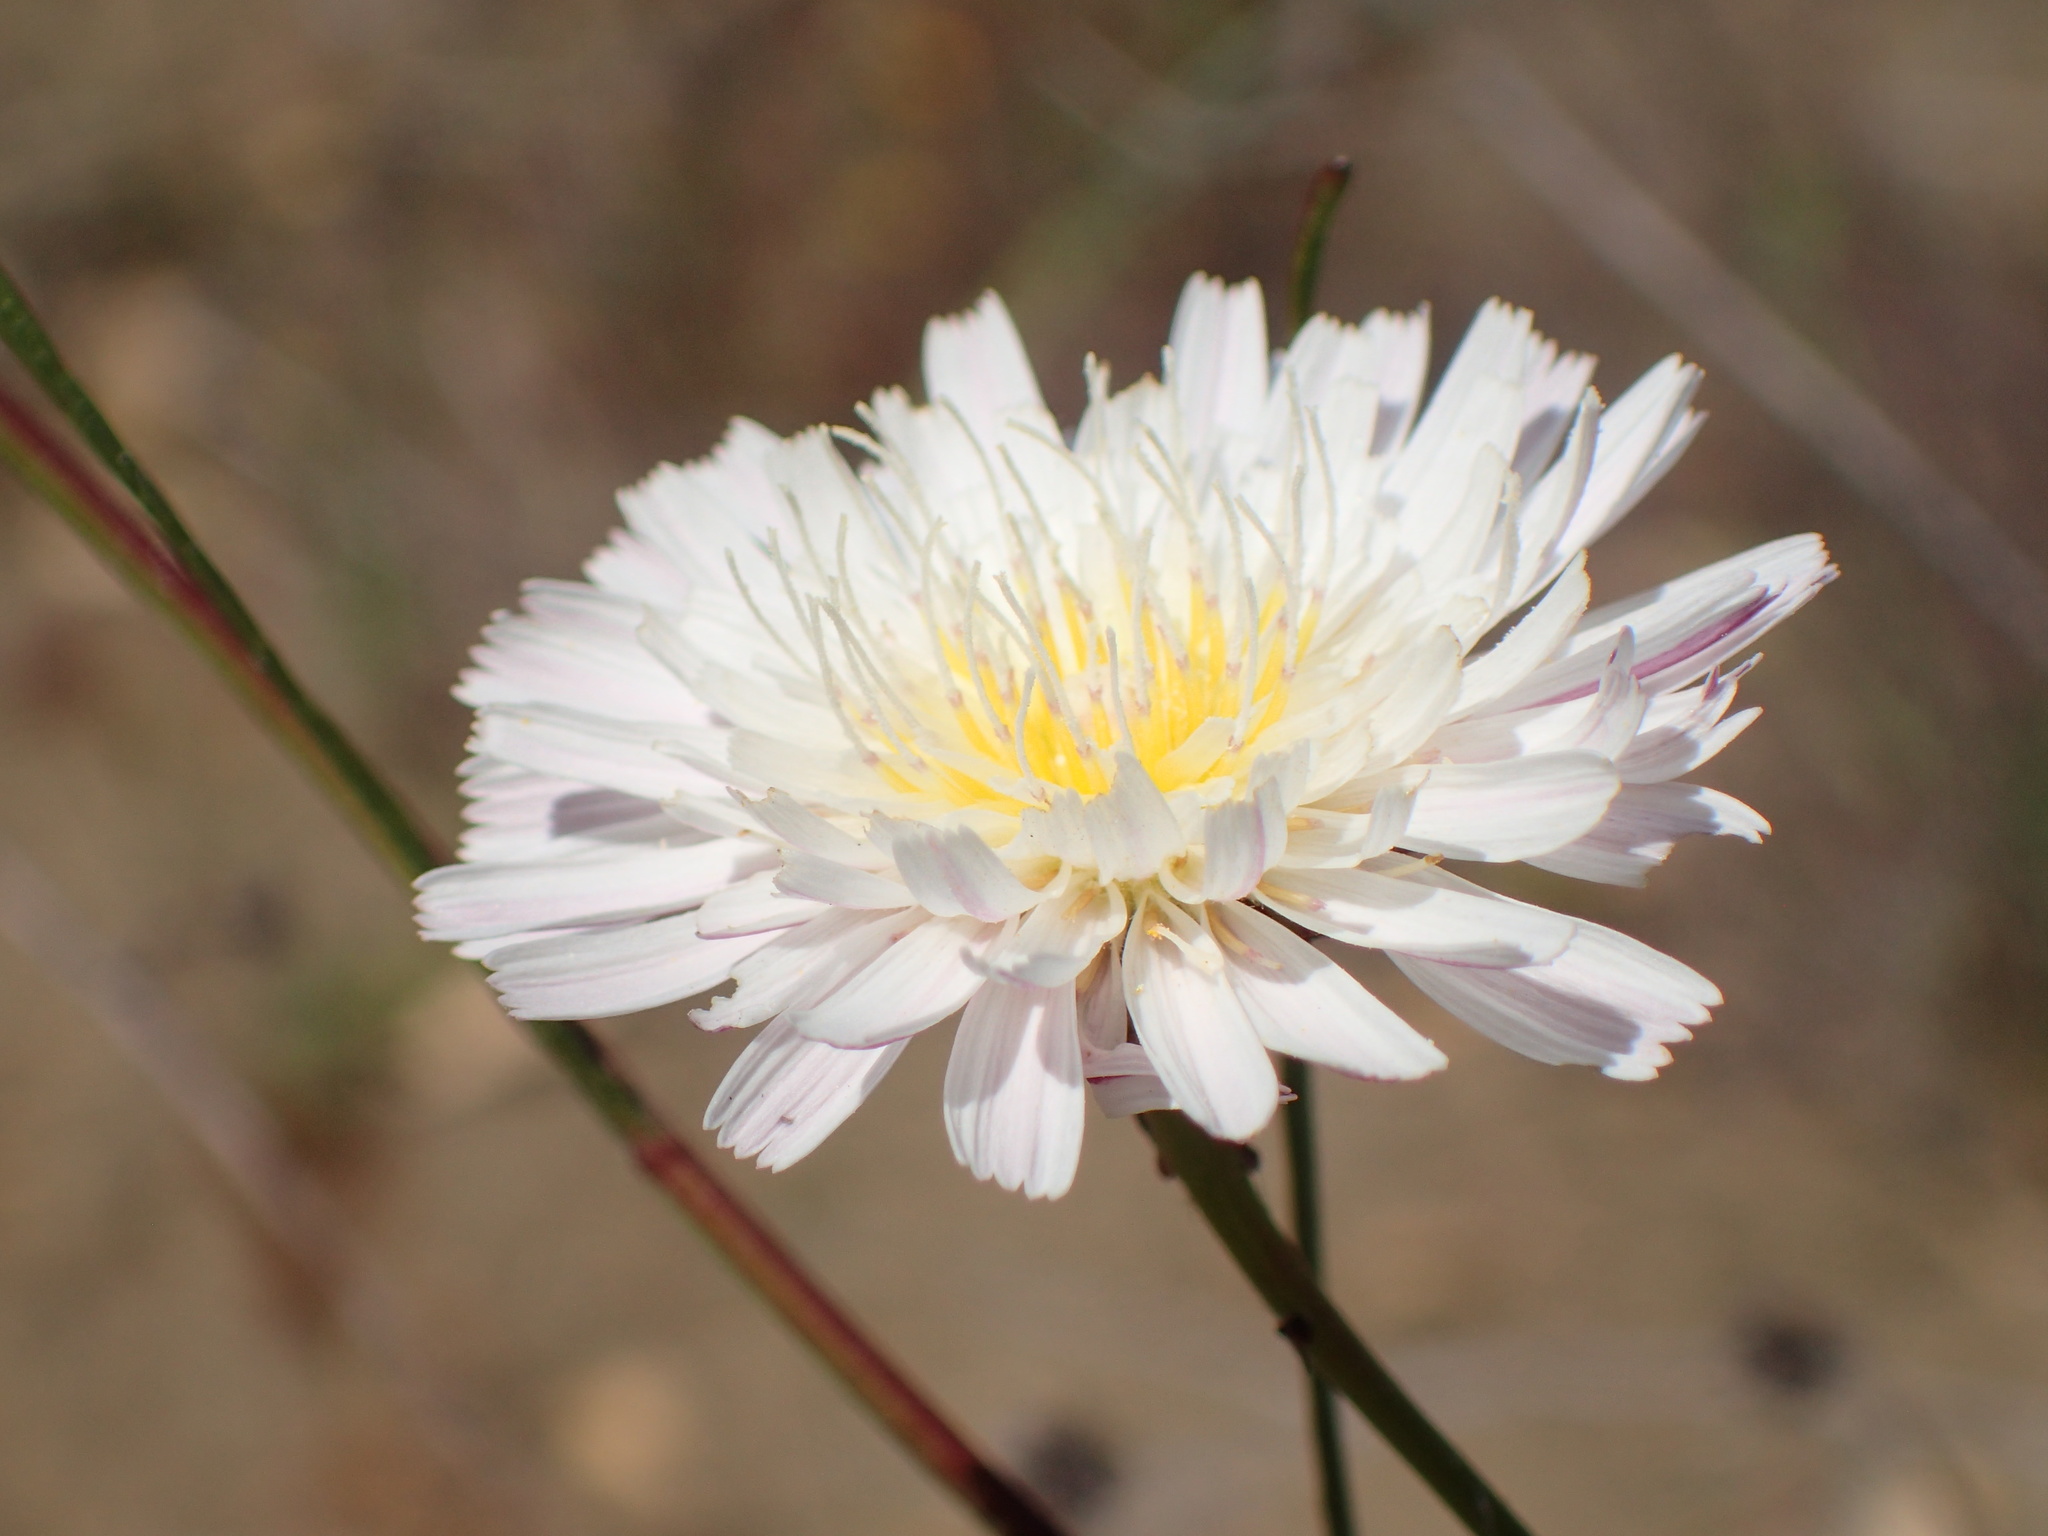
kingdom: Plantae
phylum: Tracheophyta
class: Magnoliopsida
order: Asterales
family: Asteraceae
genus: Malacothrix
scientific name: Malacothrix saxatilis
